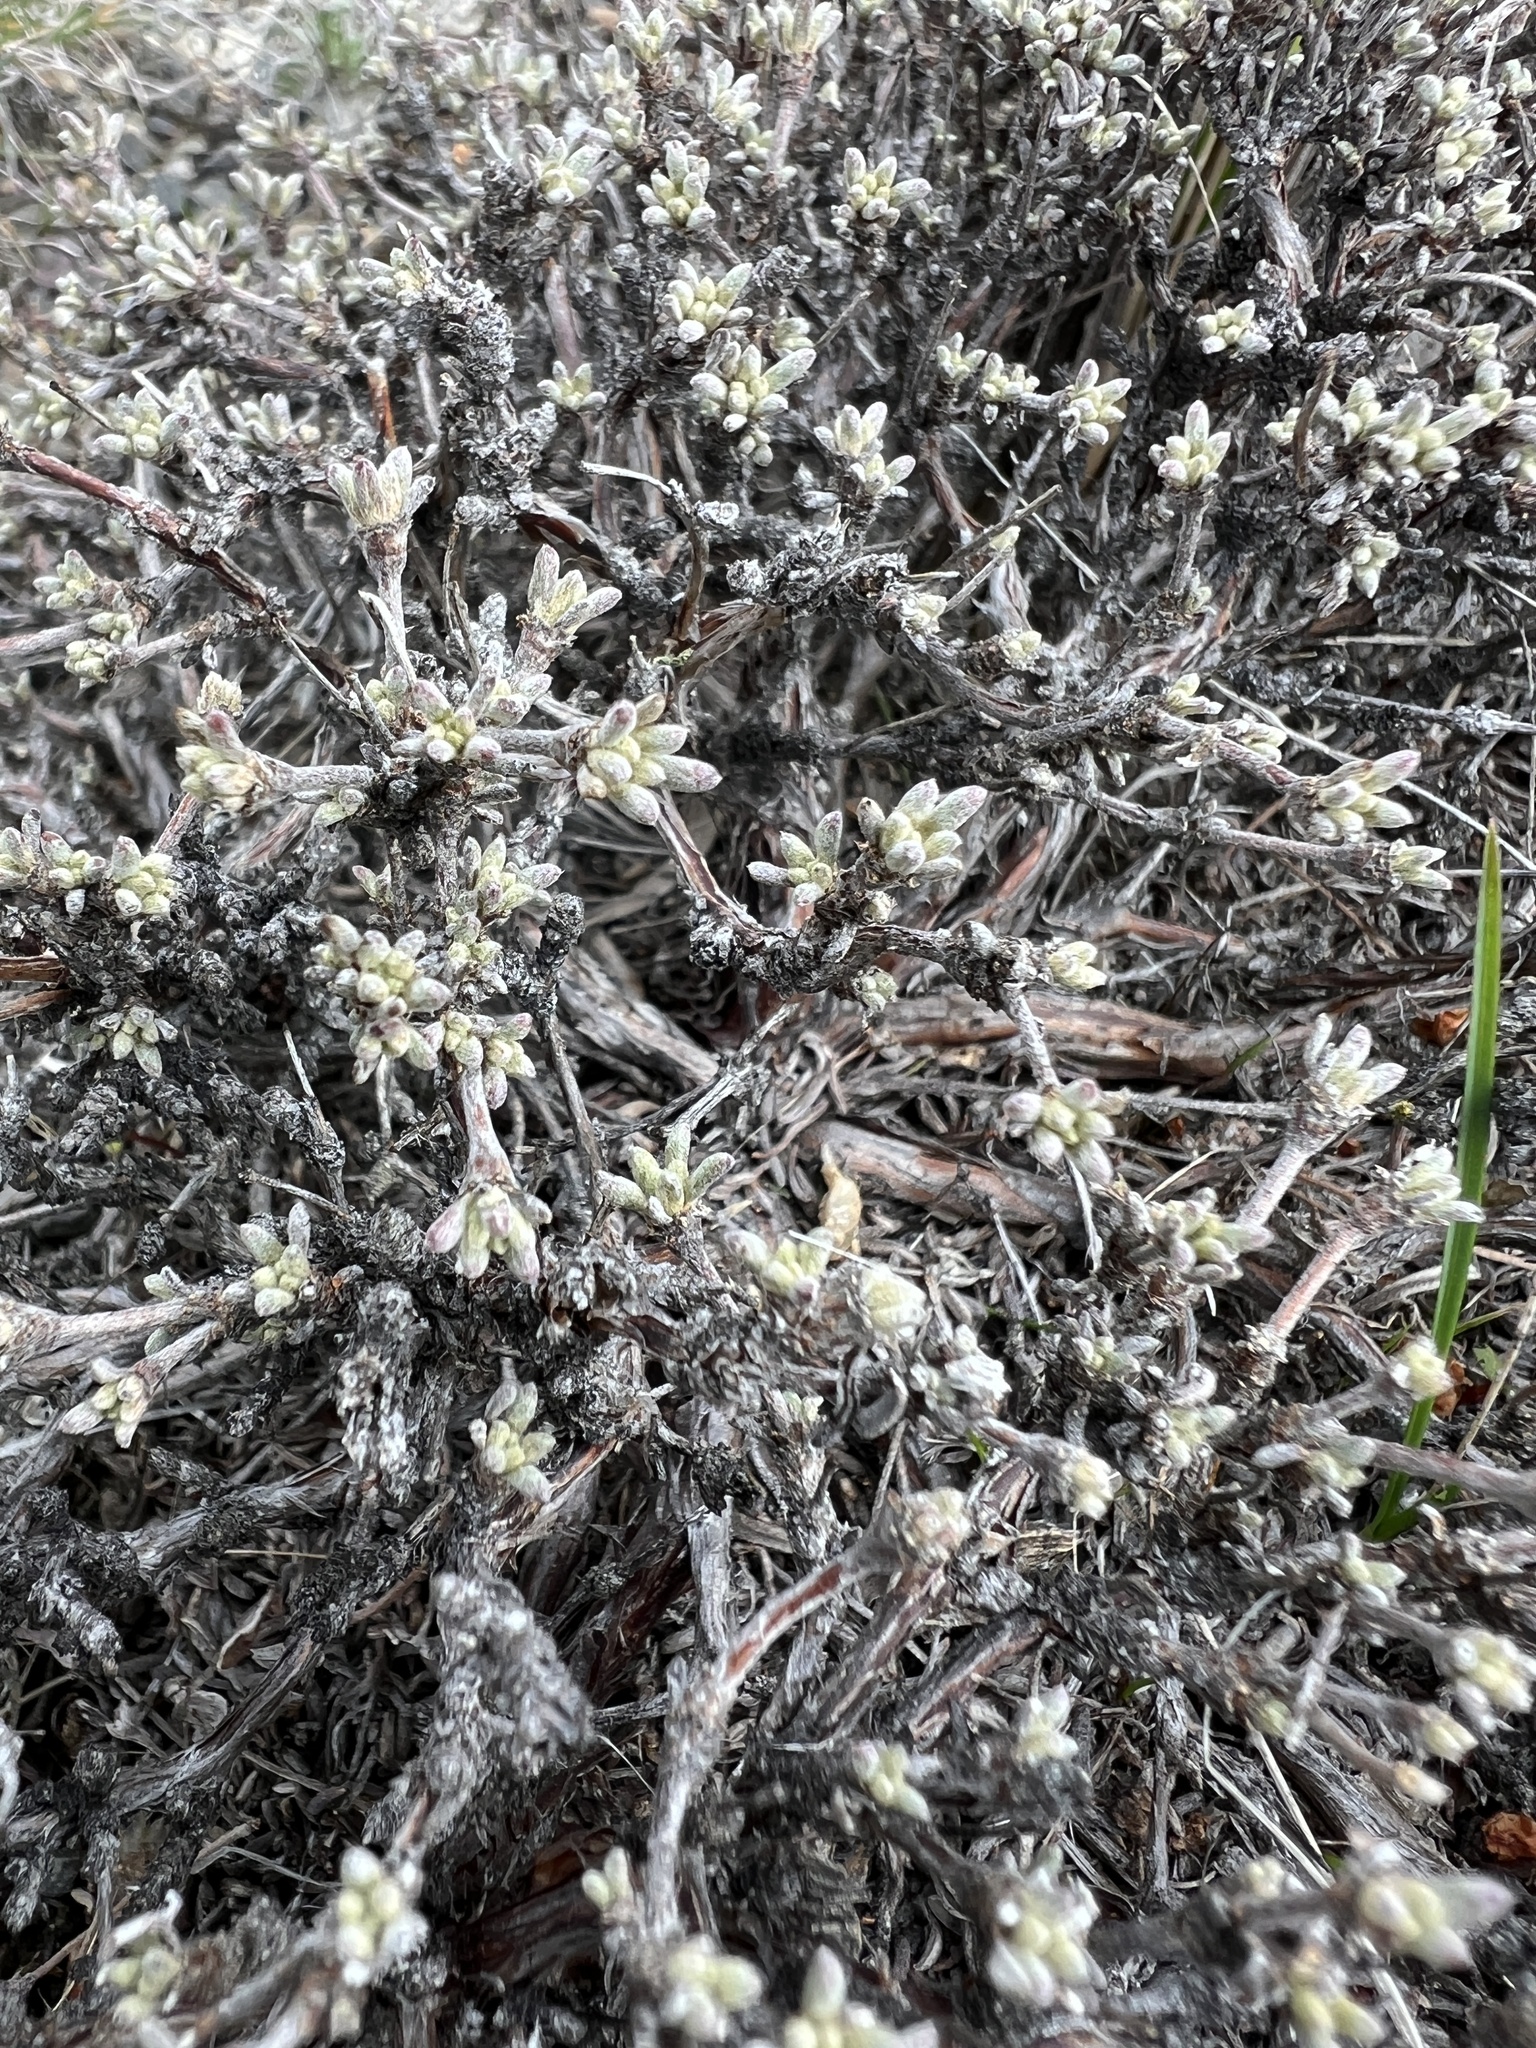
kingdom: Plantae
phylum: Tracheophyta
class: Magnoliopsida
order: Caryophyllales
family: Polygonaceae
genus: Eriogonum
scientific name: Eriogonum thymoides
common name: Thyme-leaf wild buckwheat
